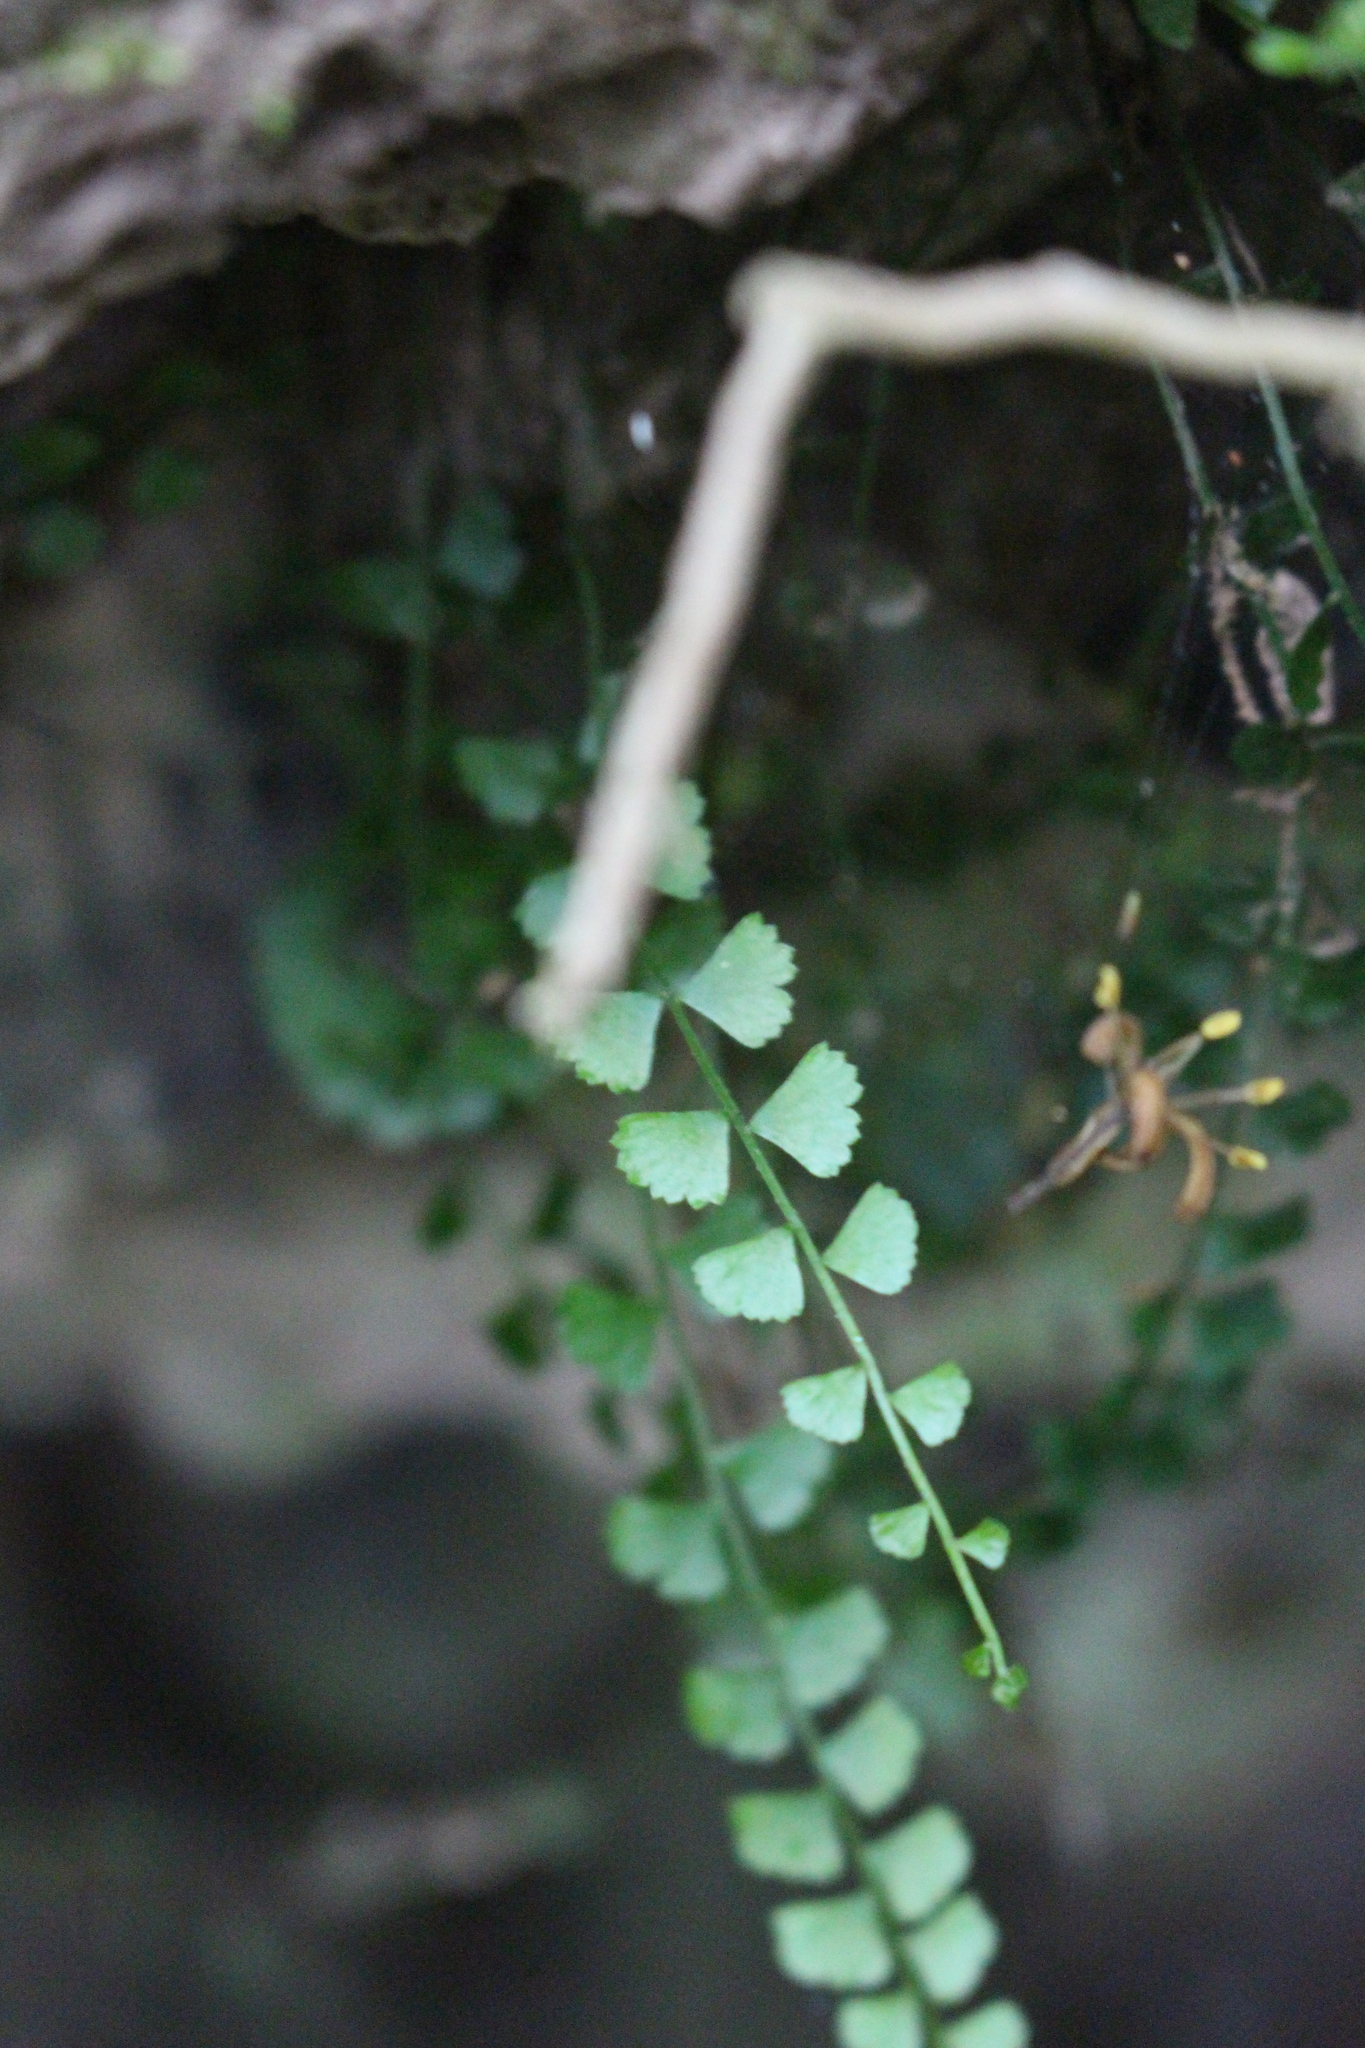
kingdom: Plantae
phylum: Tracheophyta
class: Polypodiopsida
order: Polypodiales
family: Aspleniaceae
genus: Asplenium
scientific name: Asplenium flabellifolium
